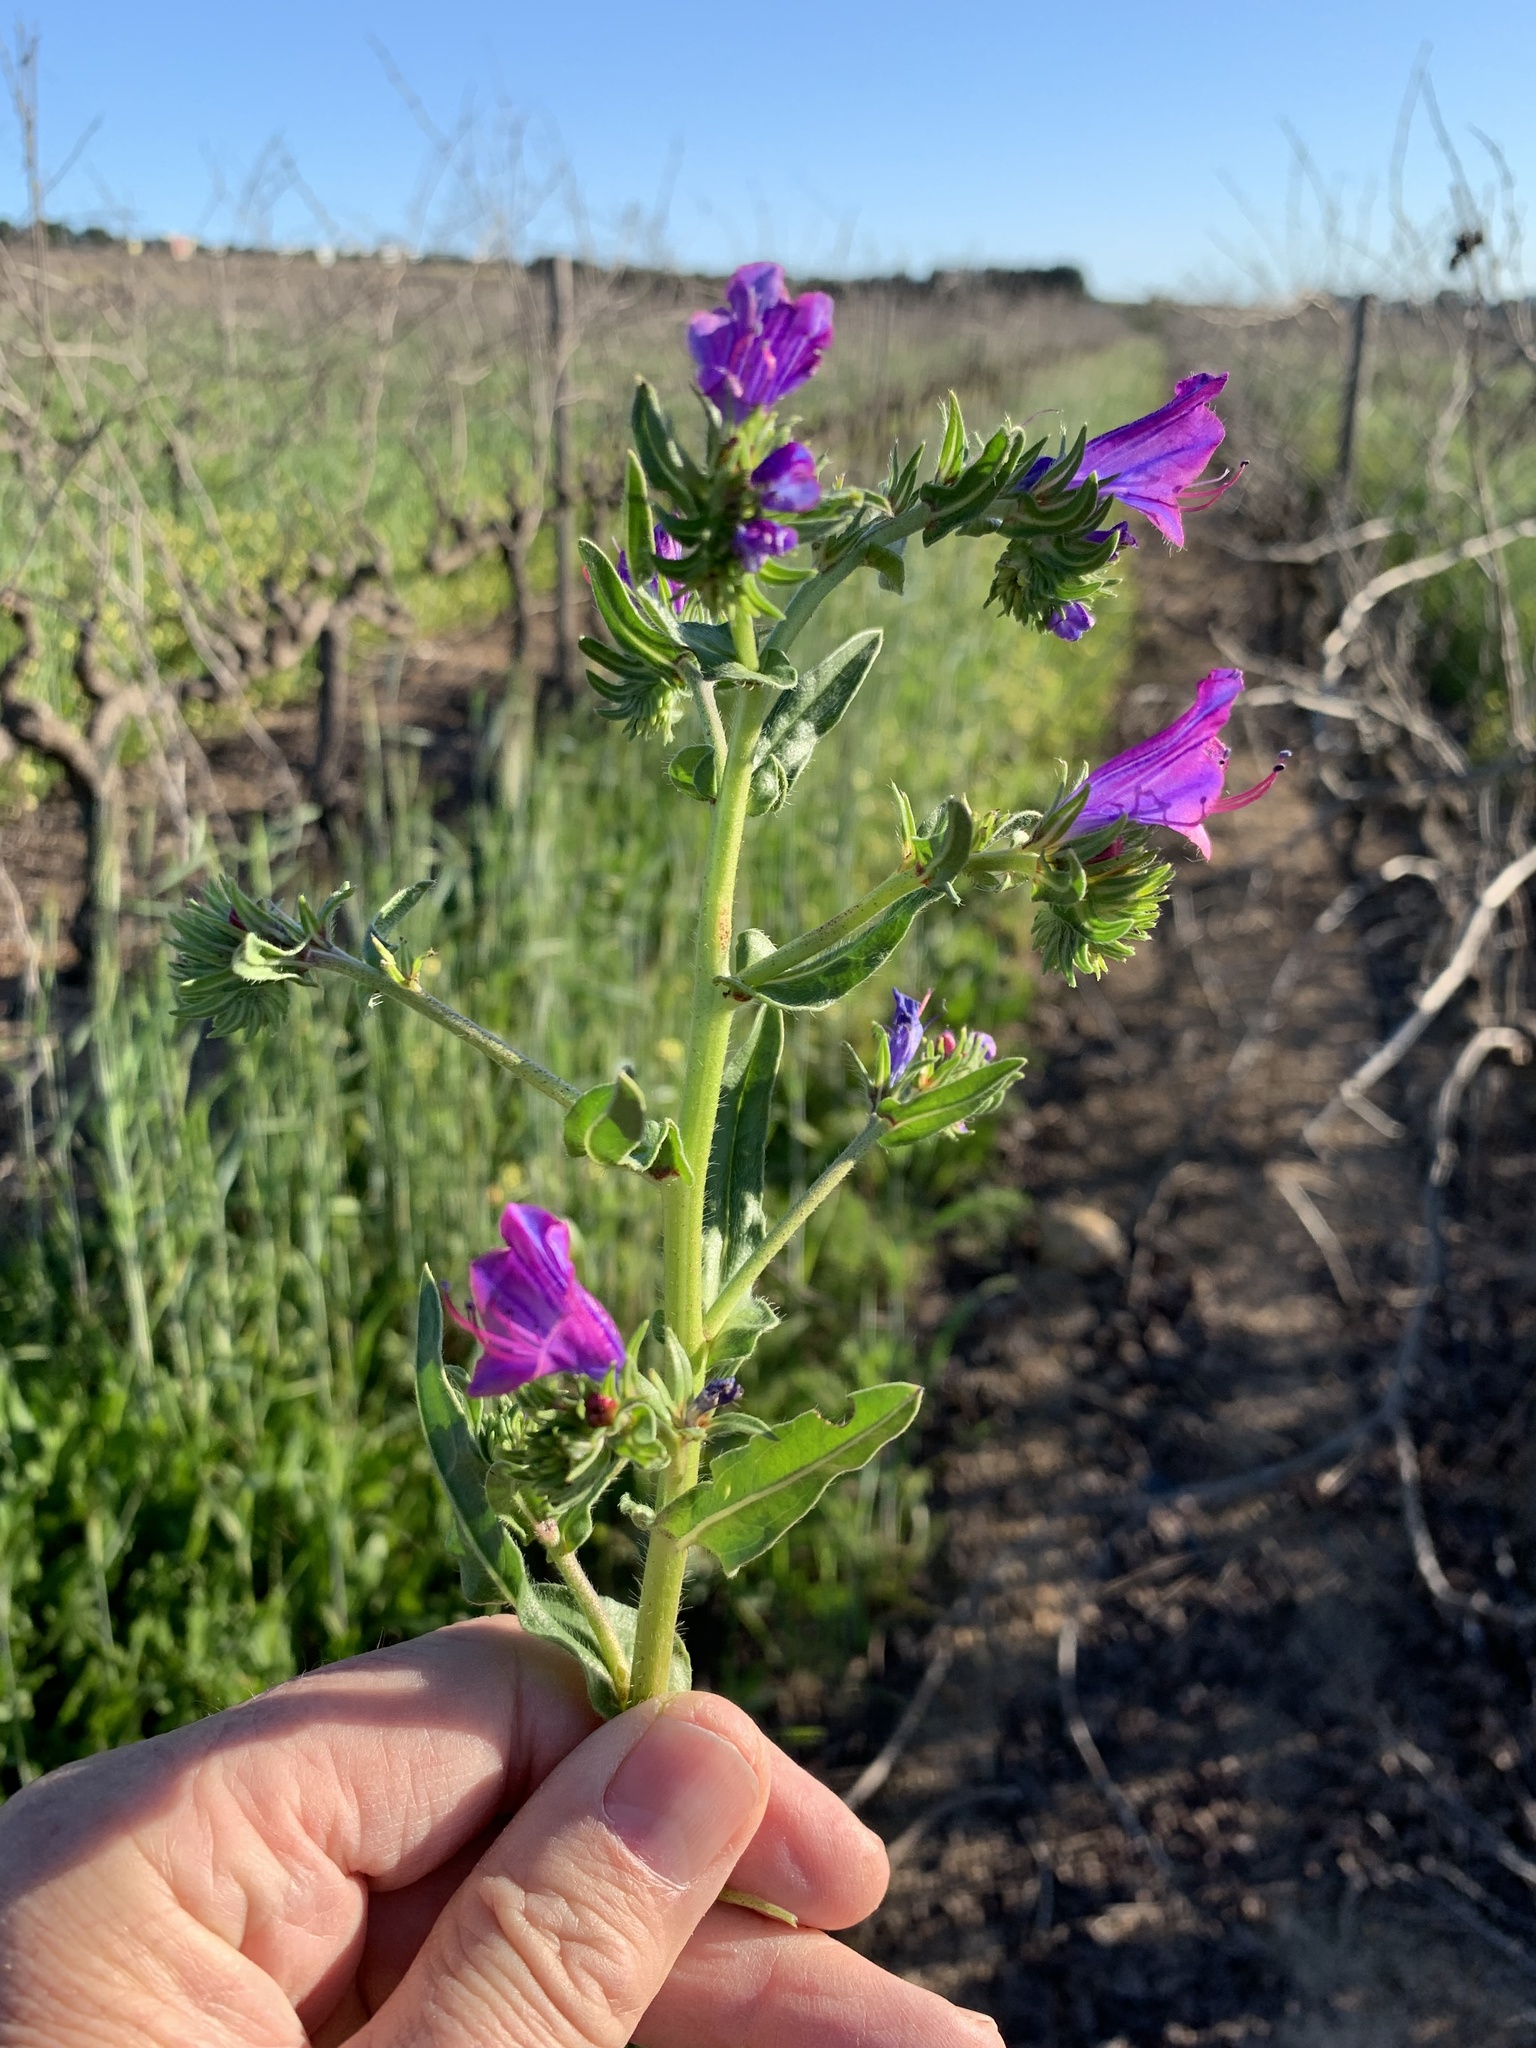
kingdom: Plantae
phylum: Tracheophyta
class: Magnoliopsida
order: Boraginales
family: Boraginaceae
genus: Echium
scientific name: Echium plantagineum
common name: Purple viper's-bugloss
